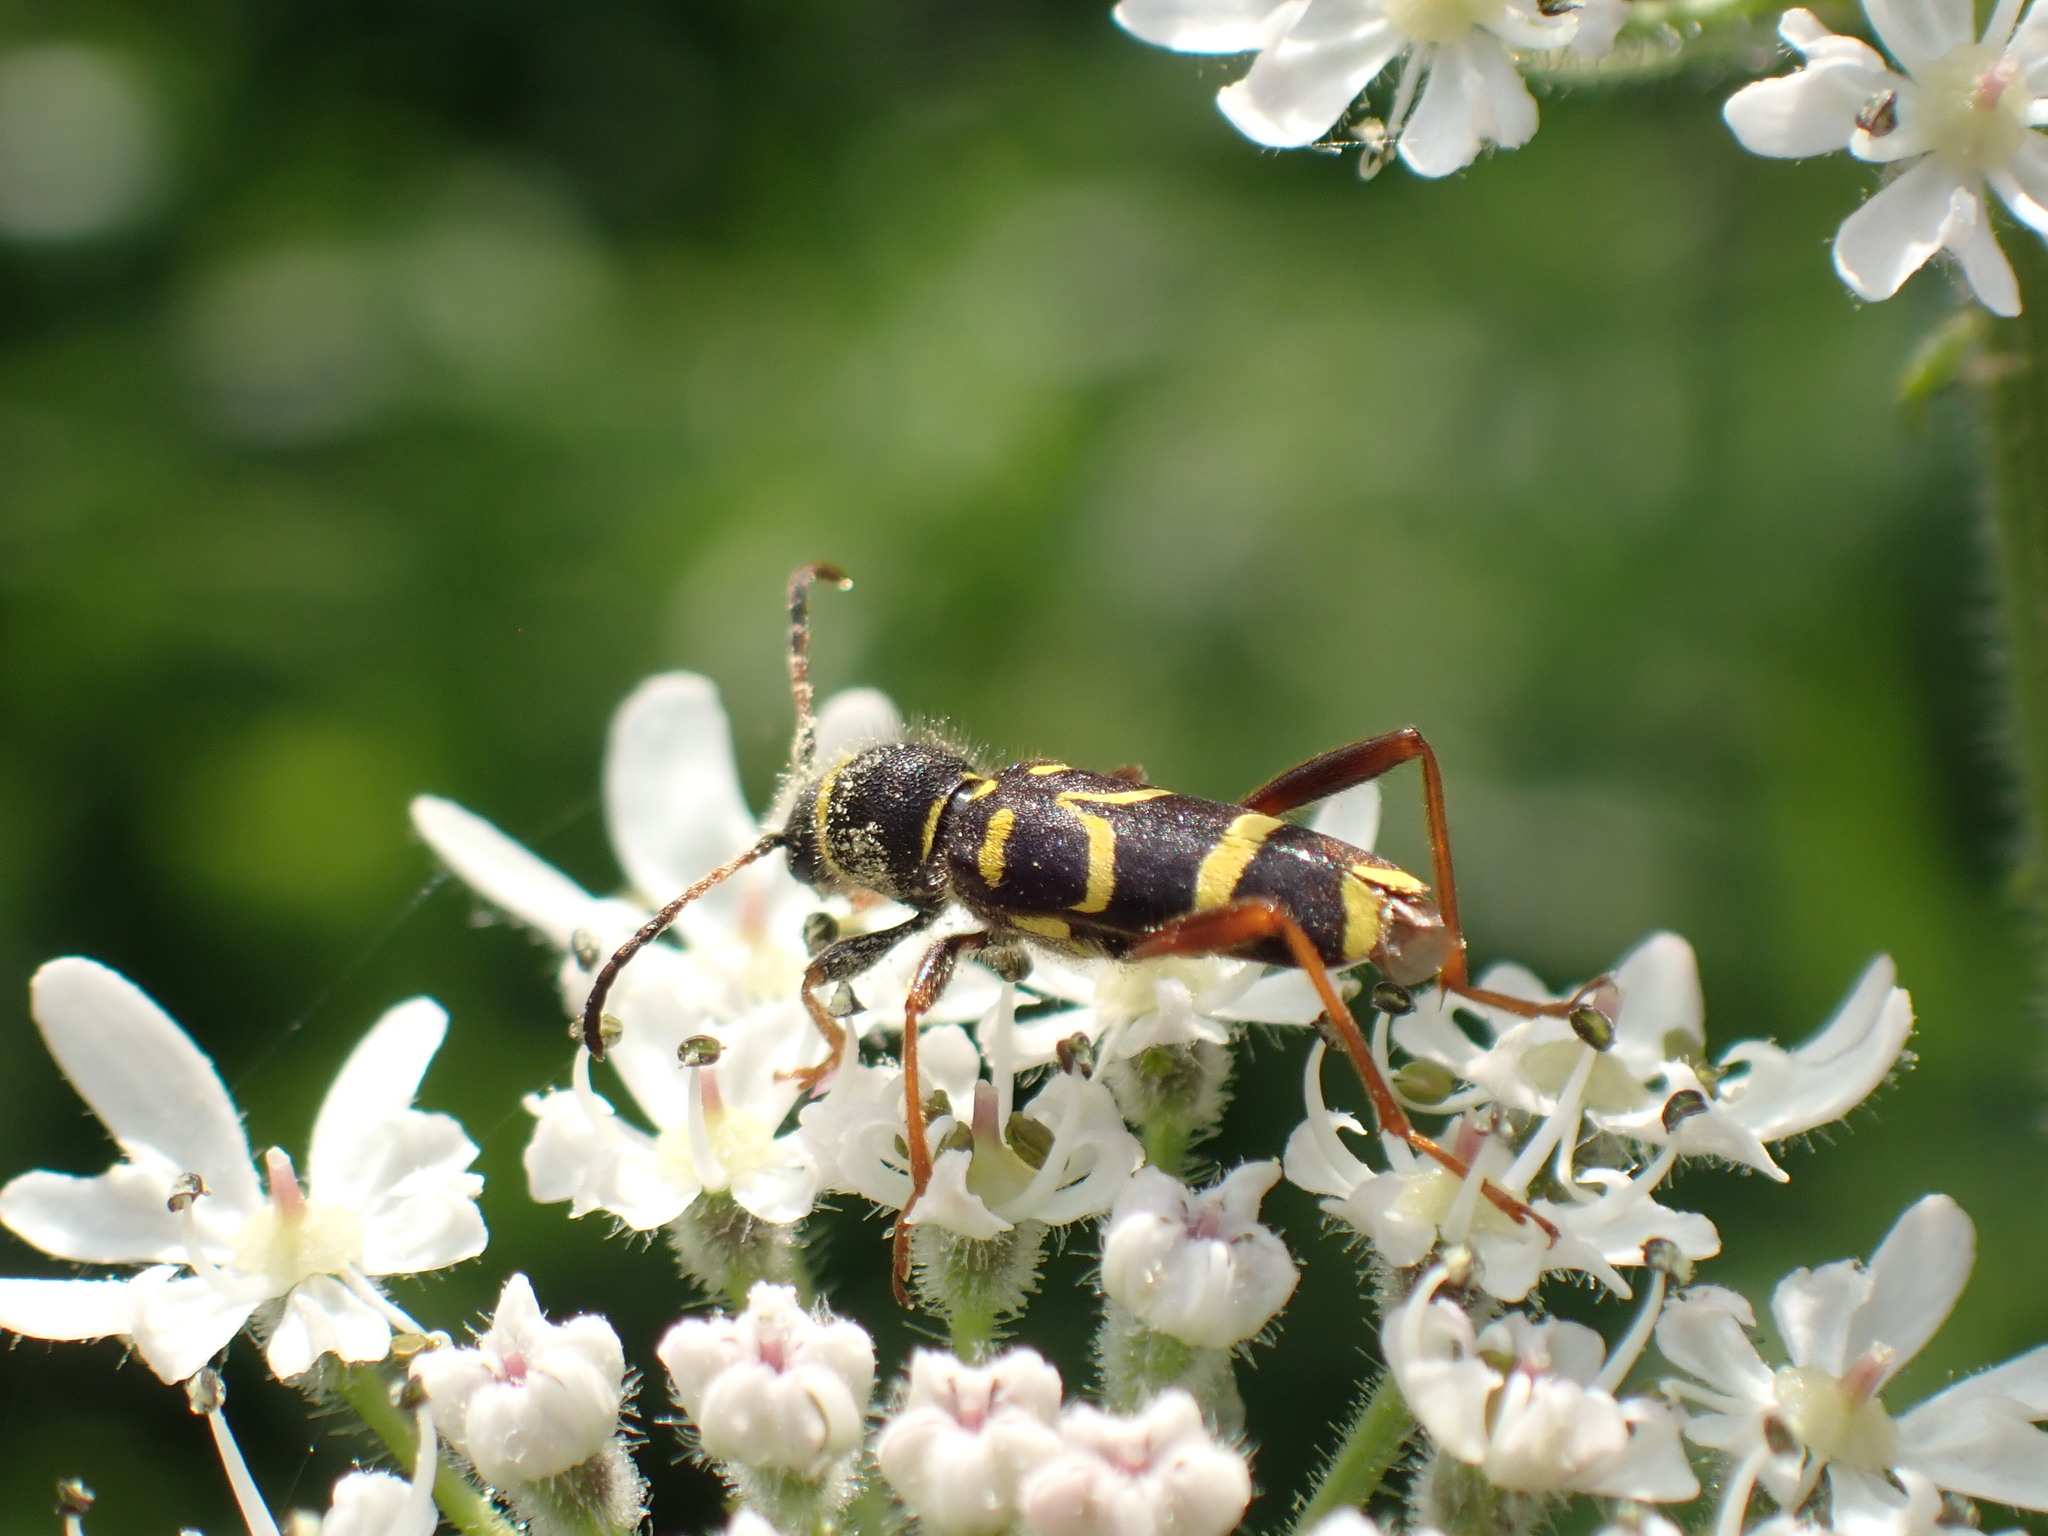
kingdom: Animalia
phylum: Arthropoda
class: Insecta
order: Coleoptera
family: Cerambycidae
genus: Clytus
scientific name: Clytus arietis
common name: Wasp beetle
